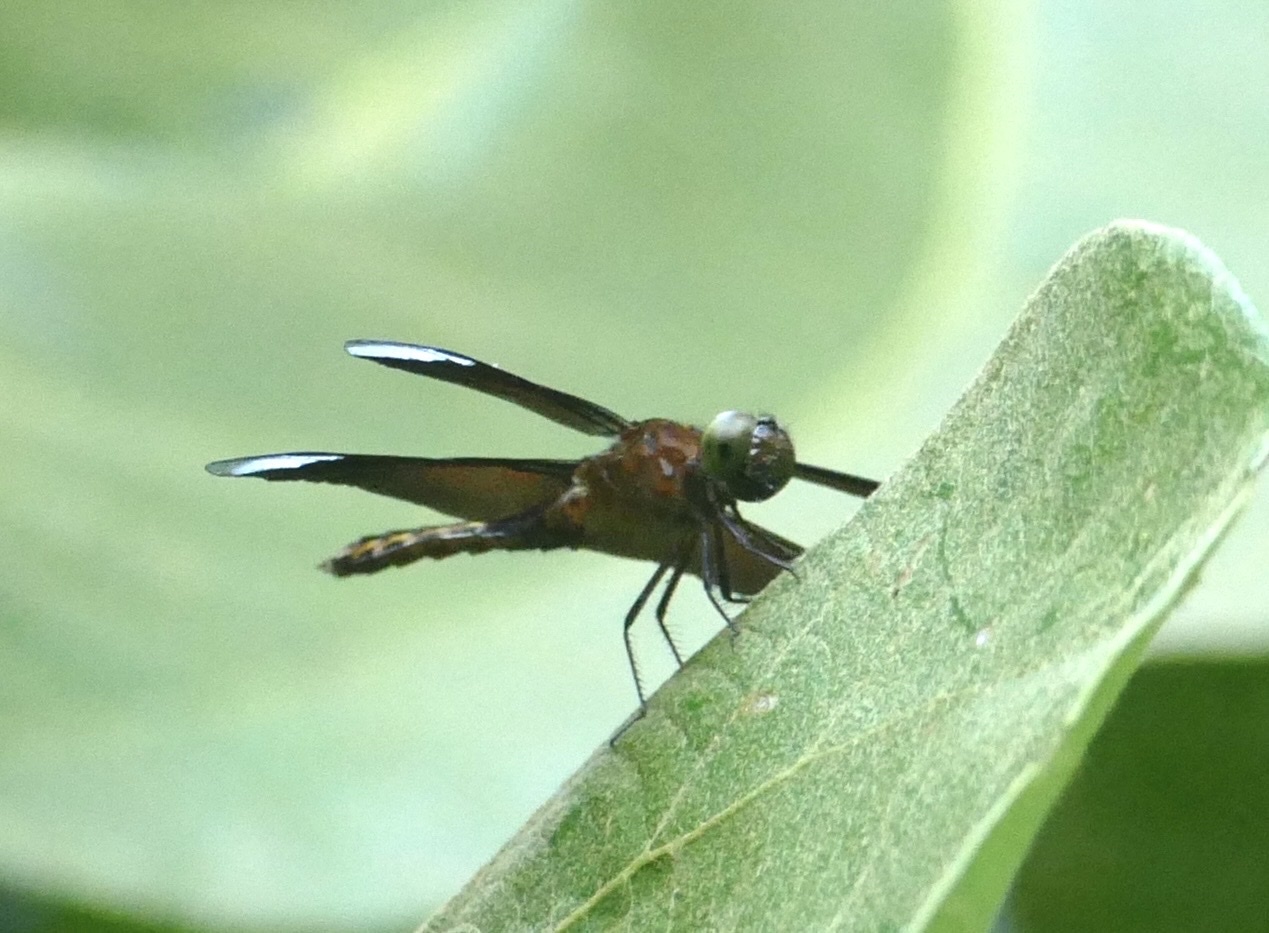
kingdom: Animalia
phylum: Arthropoda
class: Insecta
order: Odonata
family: Libellulidae
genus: Neurothemis
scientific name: Neurothemis decora
